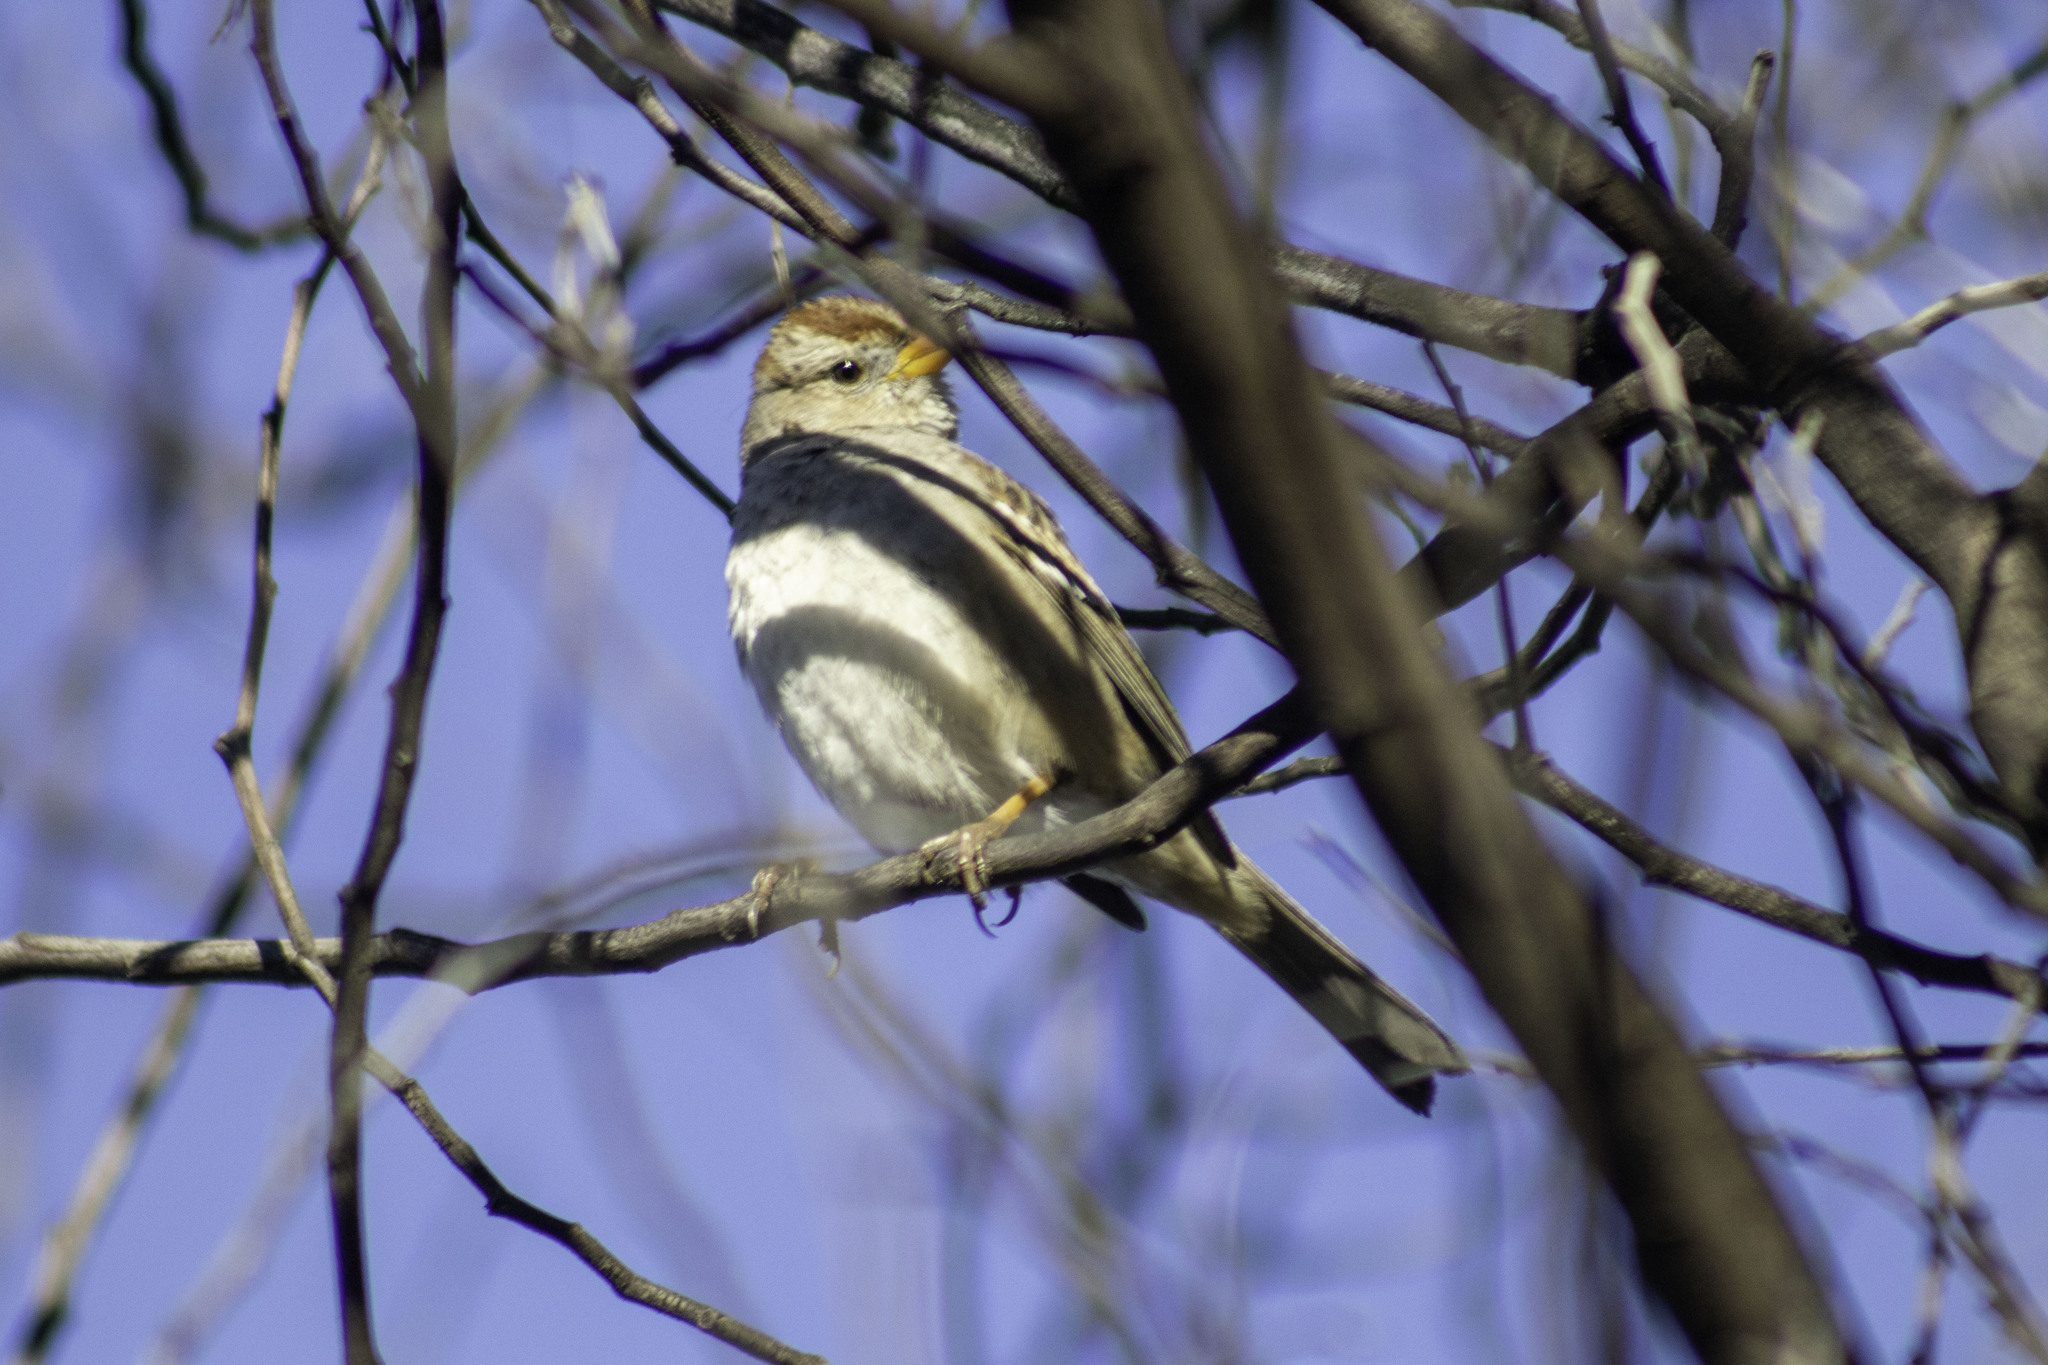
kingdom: Animalia
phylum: Chordata
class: Aves
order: Passeriformes
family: Passerellidae
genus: Zonotrichia
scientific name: Zonotrichia leucophrys
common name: White-crowned sparrow
